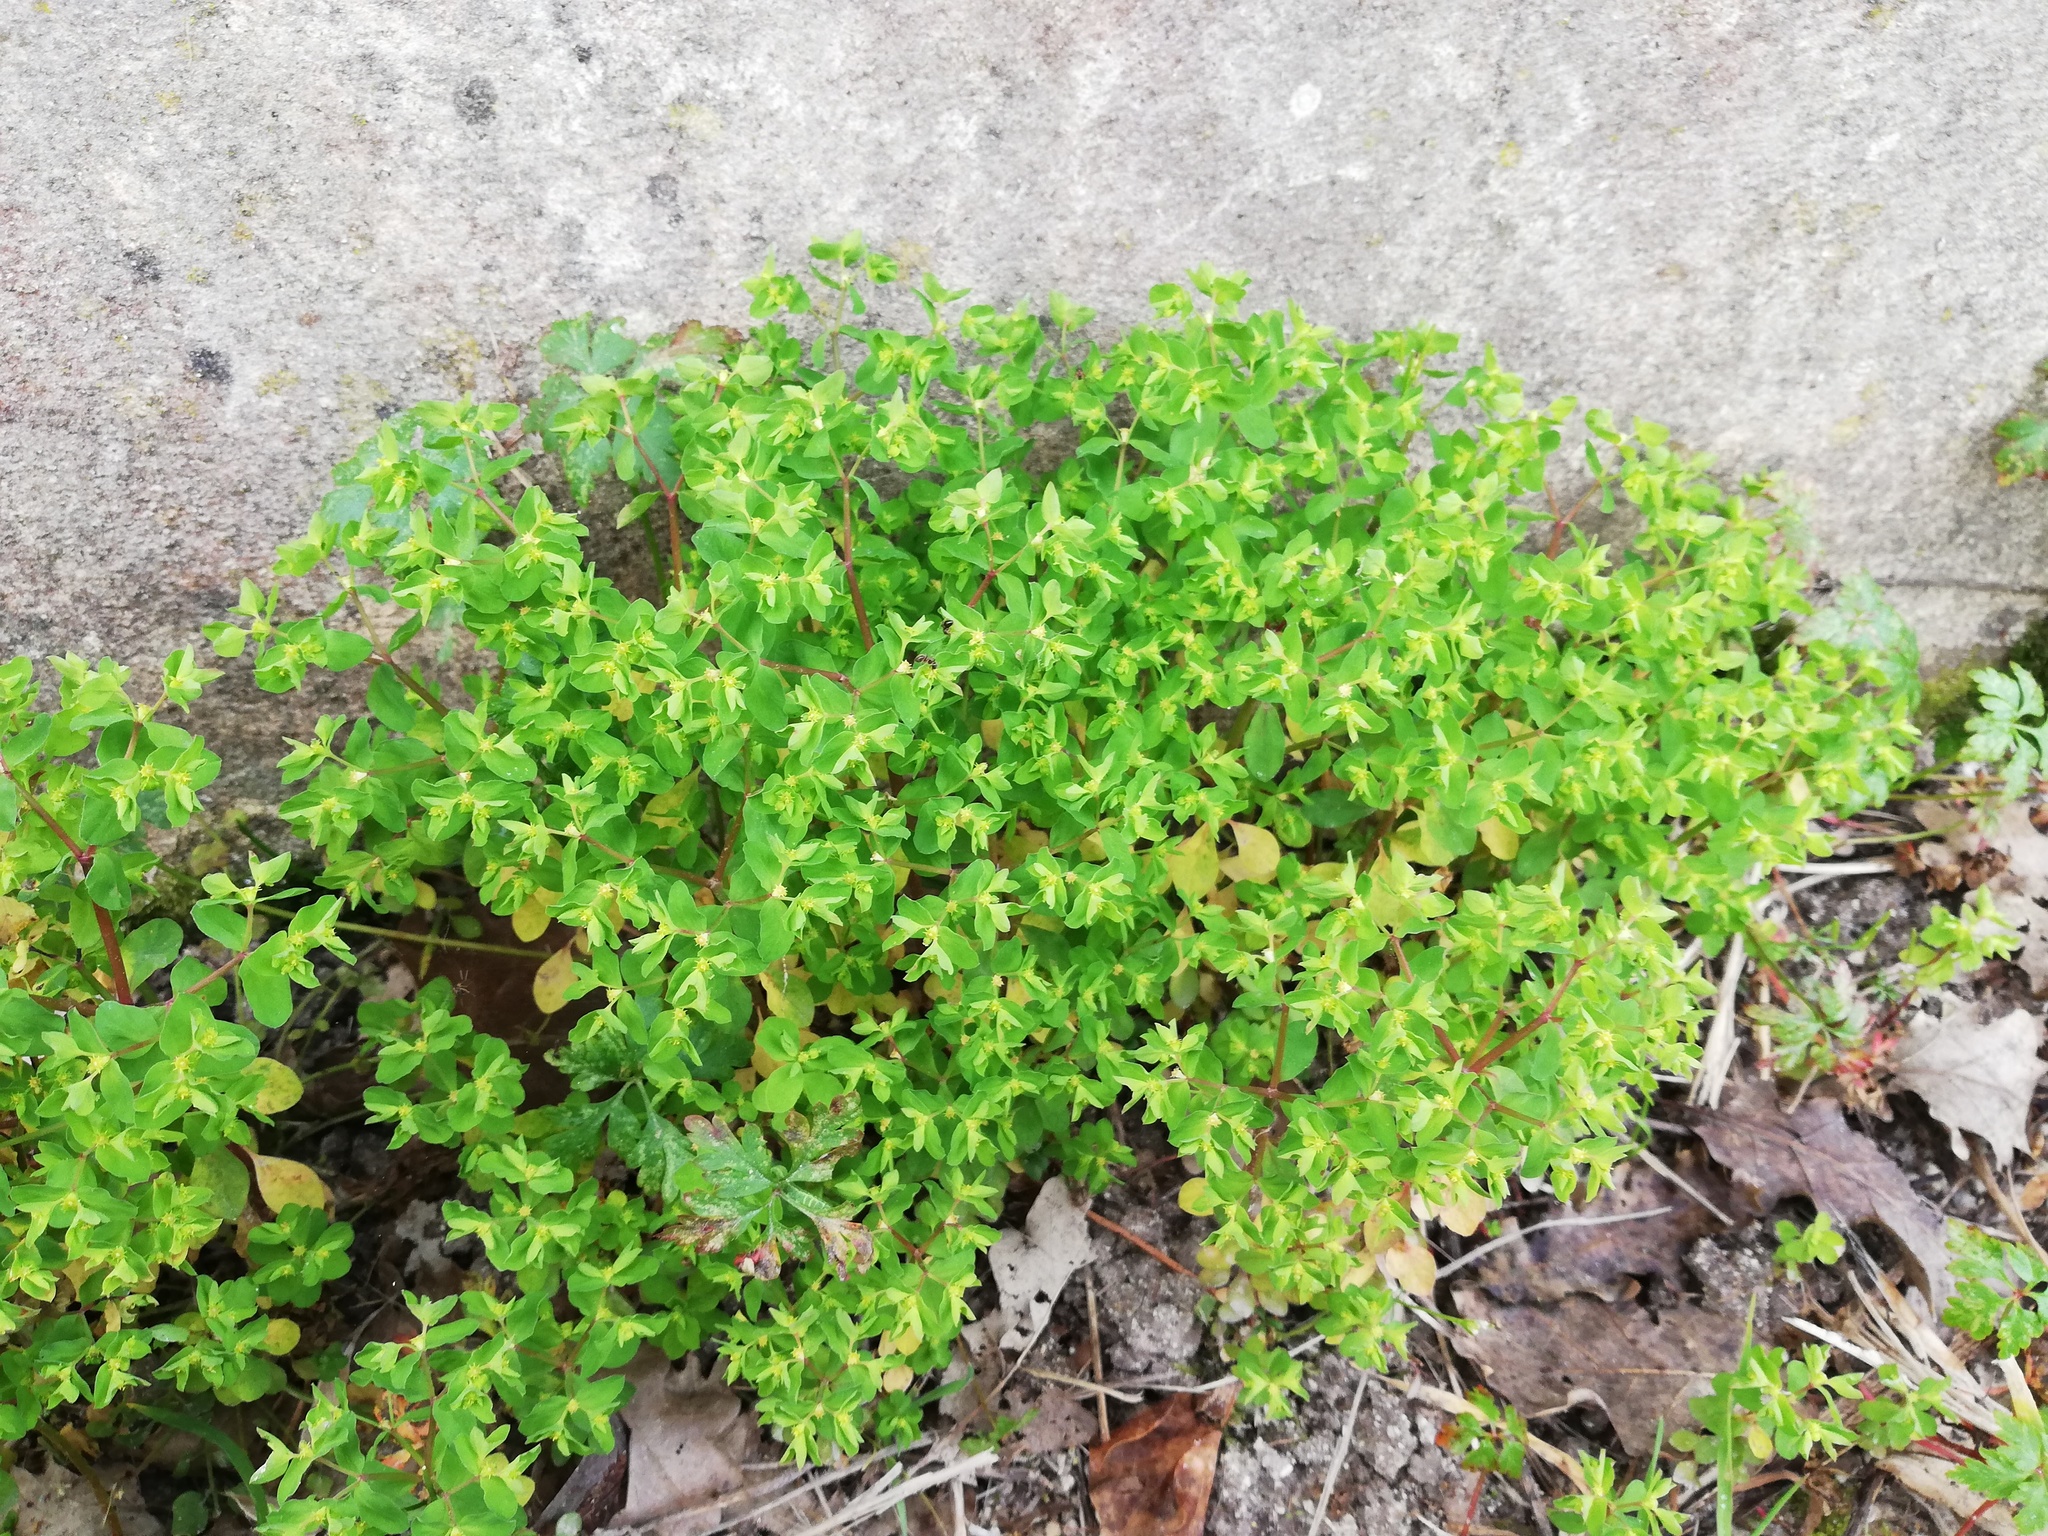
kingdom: Plantae
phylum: Tracheophyta
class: Magnoliopsida
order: Malpighiales
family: Euphorbiaceae
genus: Euphorbia
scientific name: Euphorbia peplus
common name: Petty spurge
